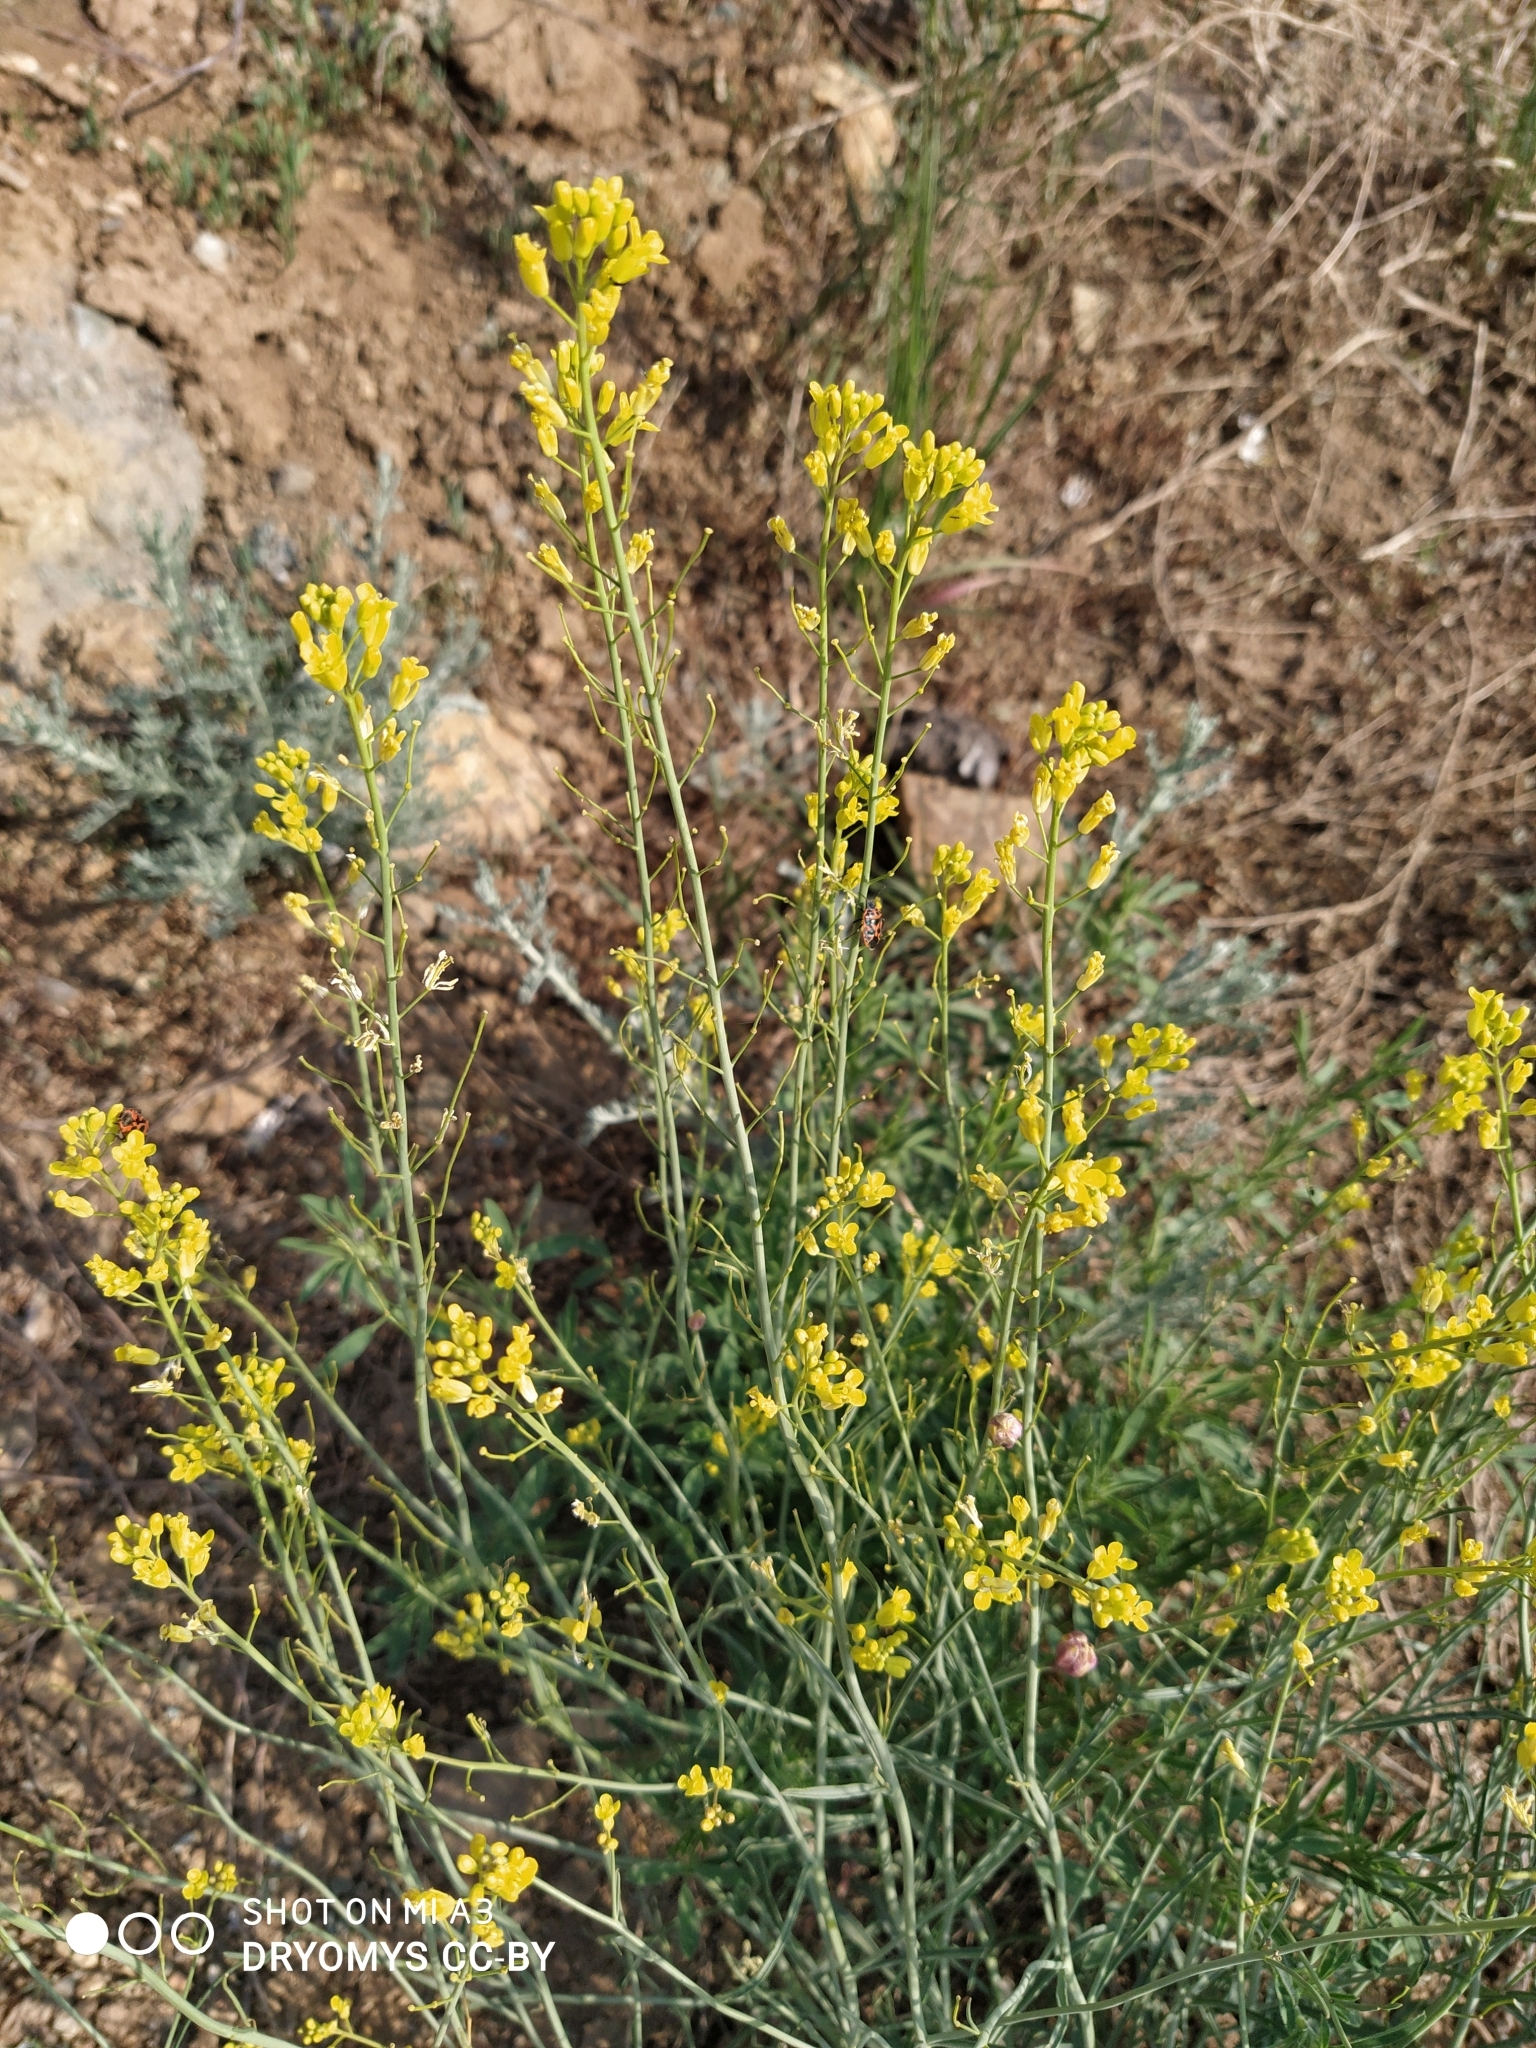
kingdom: Plantae
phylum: Tracheophyta
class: Magnoliopsida
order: Brassicales
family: Brassicaceae
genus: Sisymbrium
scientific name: Sisymbrium polymorphum
